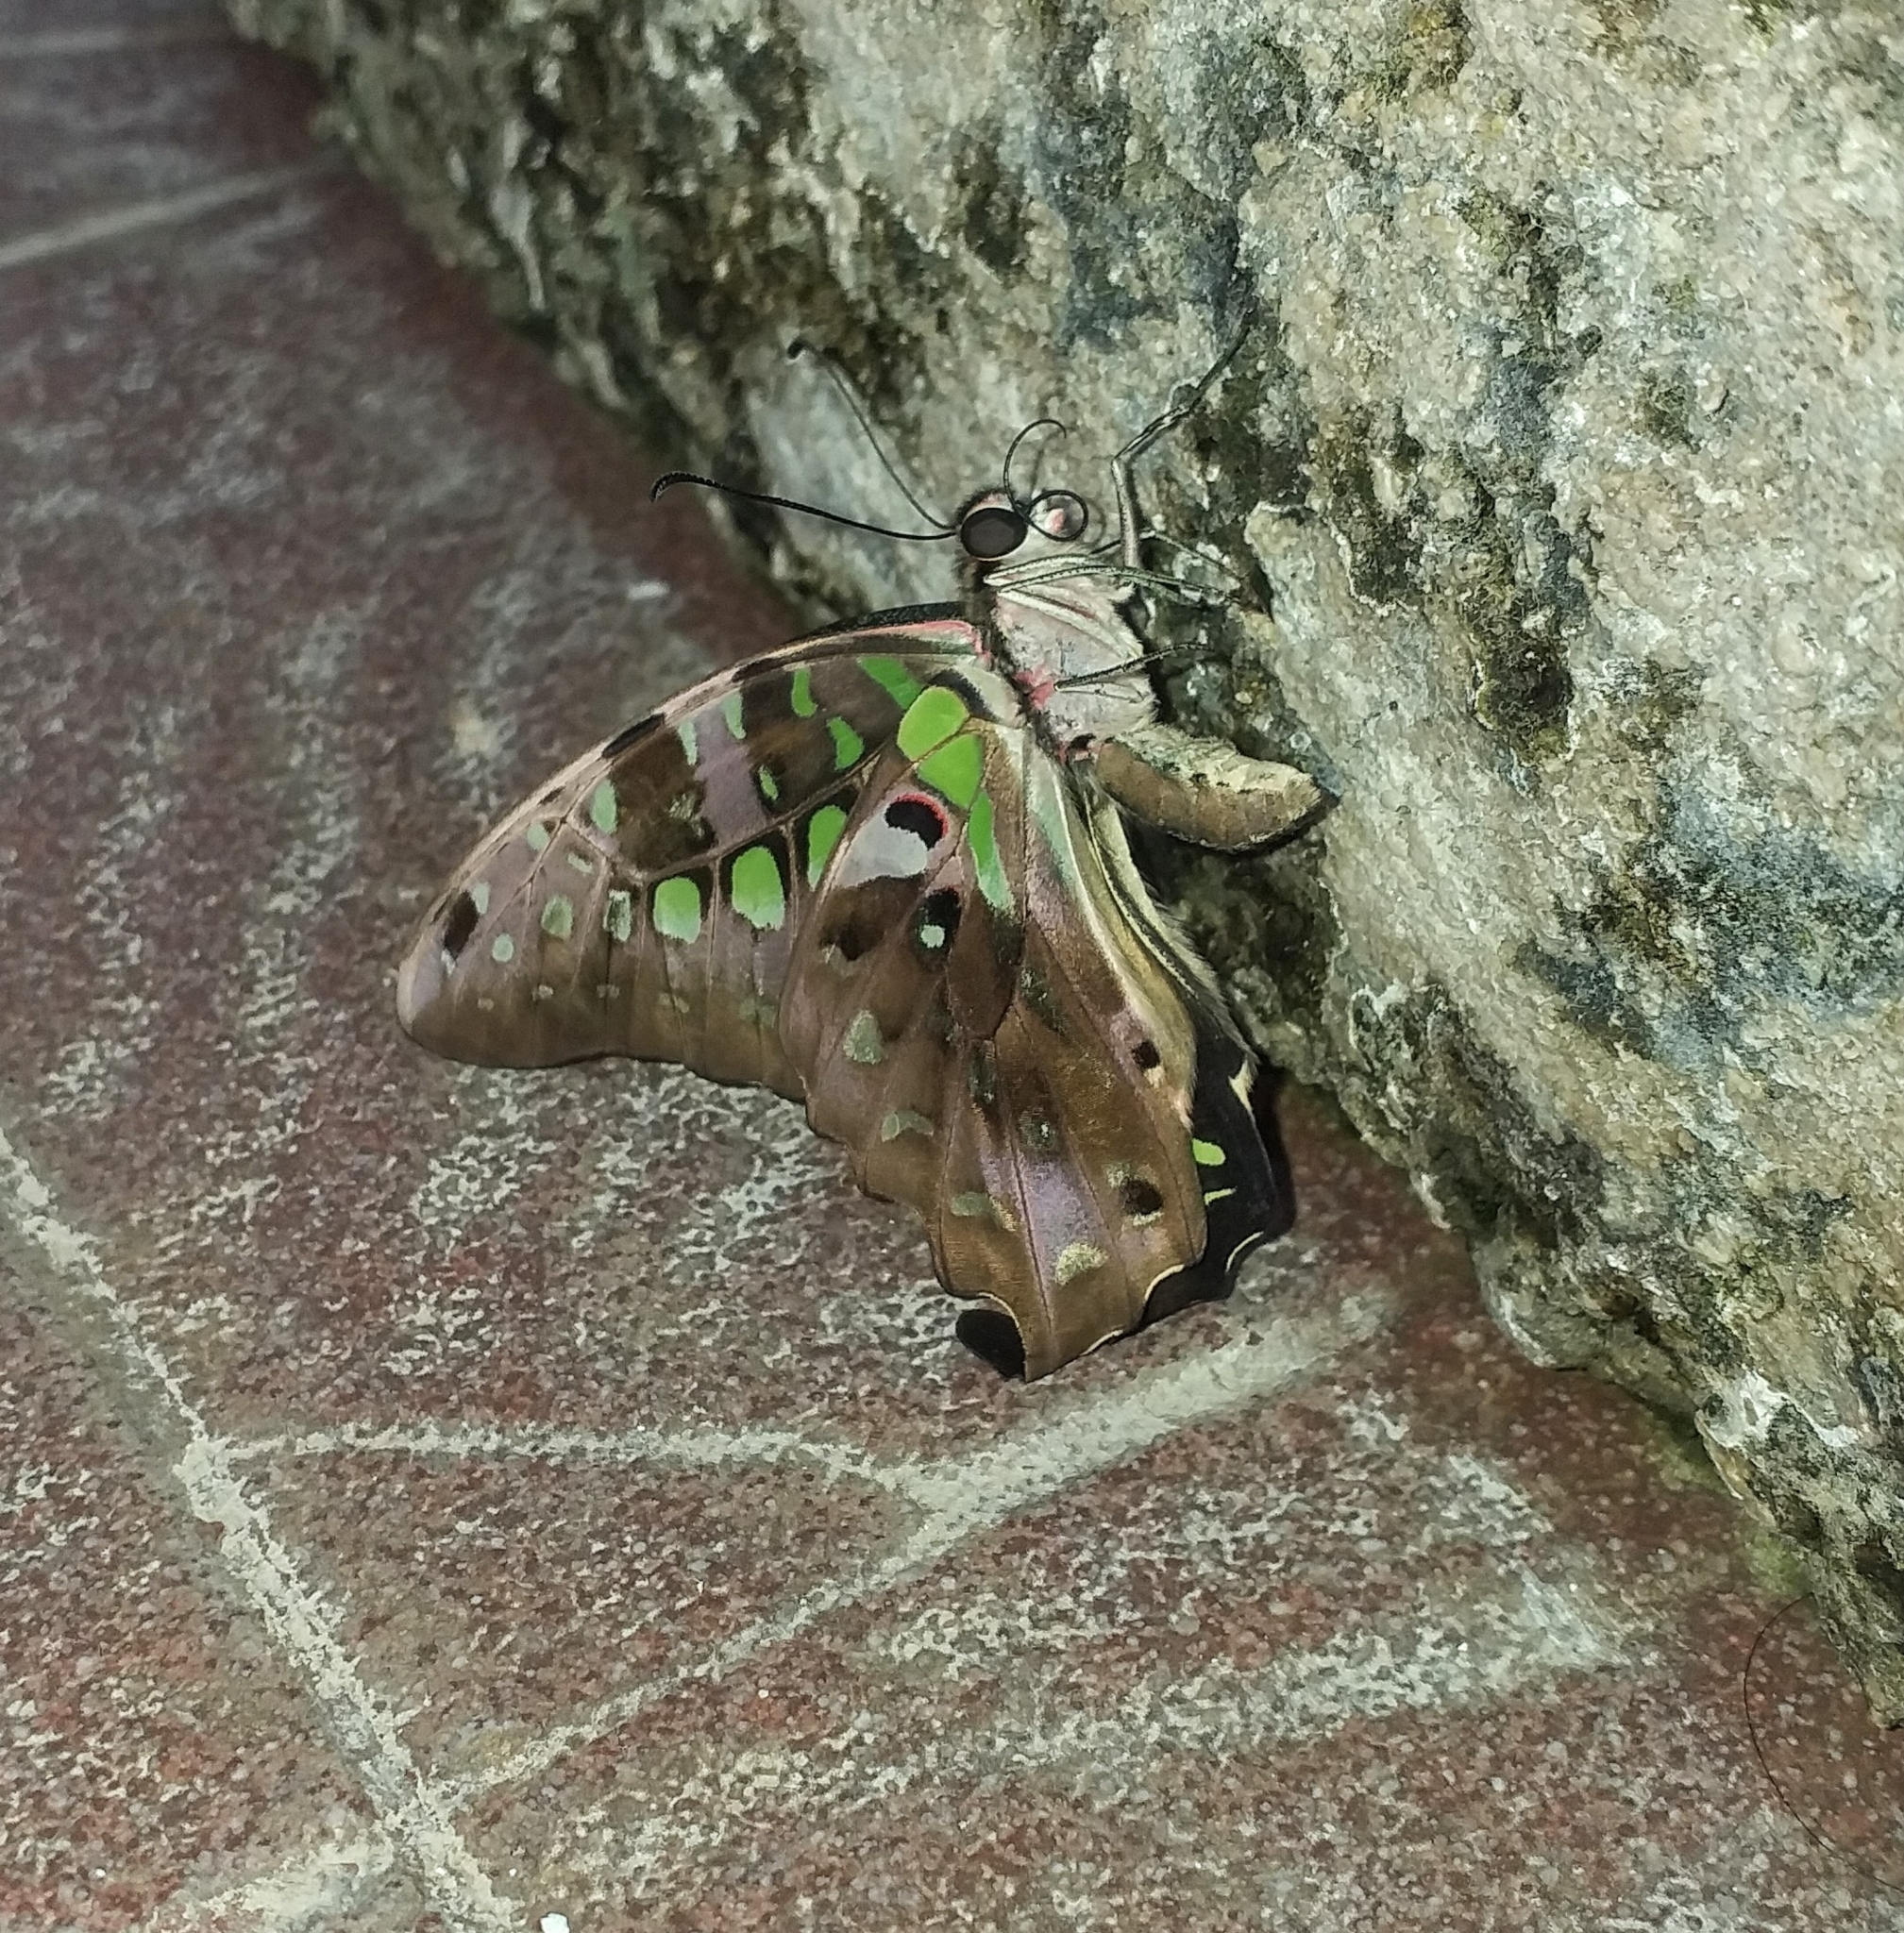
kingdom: Animalia
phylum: Arthropoda
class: Insecta
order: Lepidoptera
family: Papilionidae
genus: Graphium
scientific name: Graphium agamemnon
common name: Tailed jay
